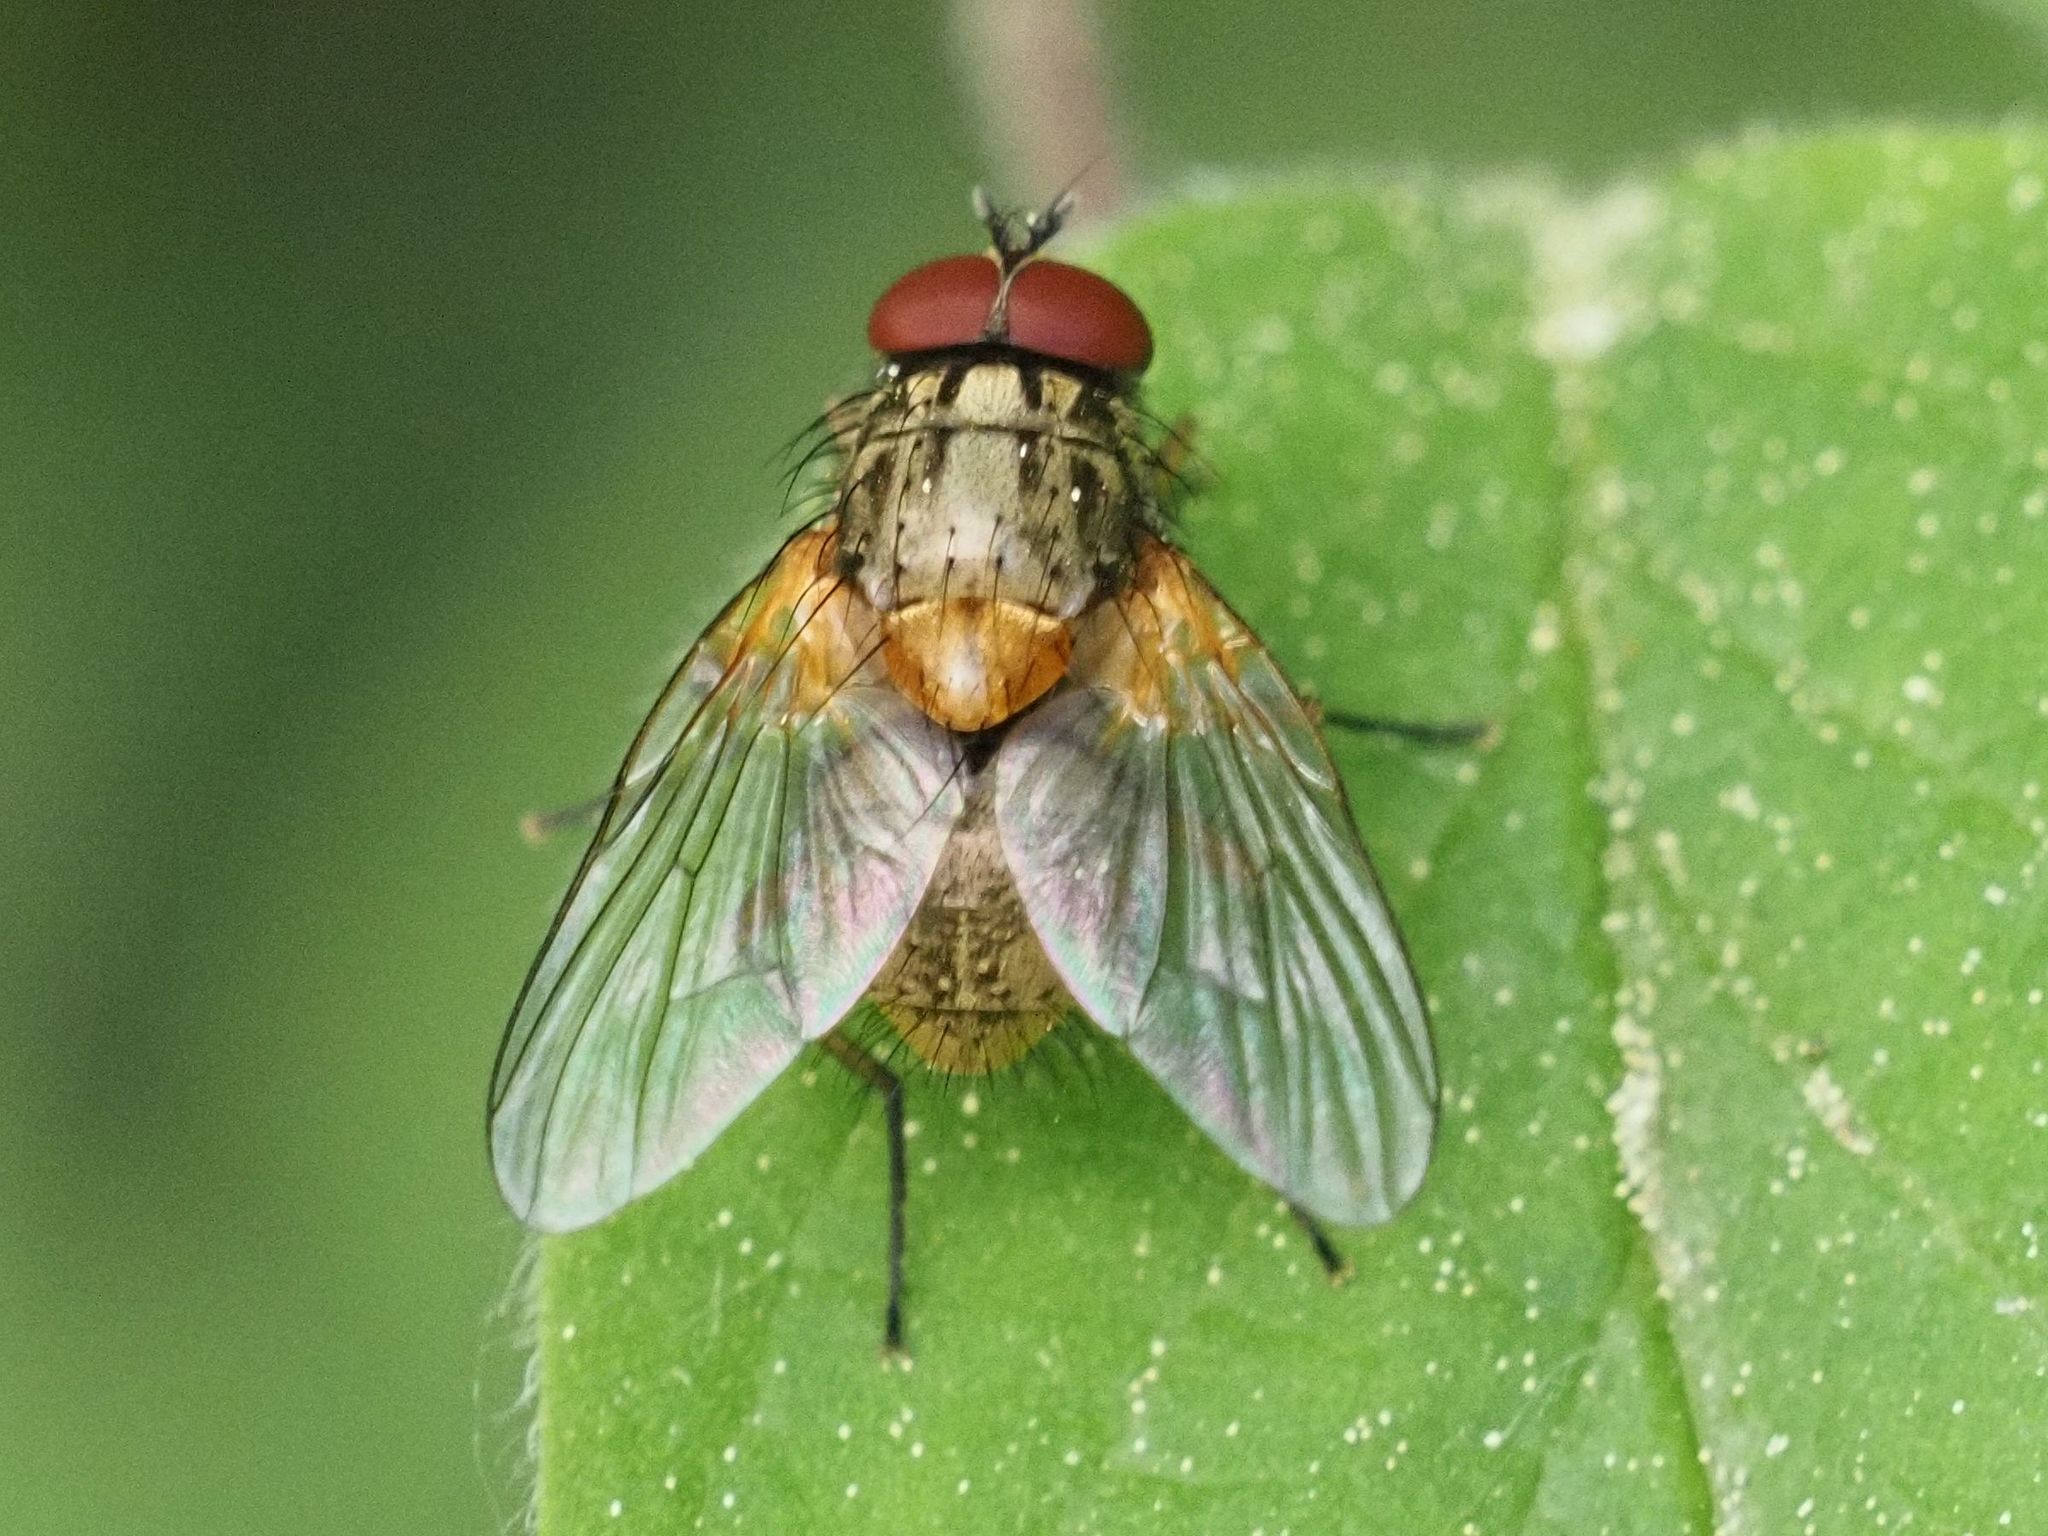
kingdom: Animalia
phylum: Arthropoda
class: Insecta
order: Diptera
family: Muscidae
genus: Mydaea
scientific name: Mydaea corni
